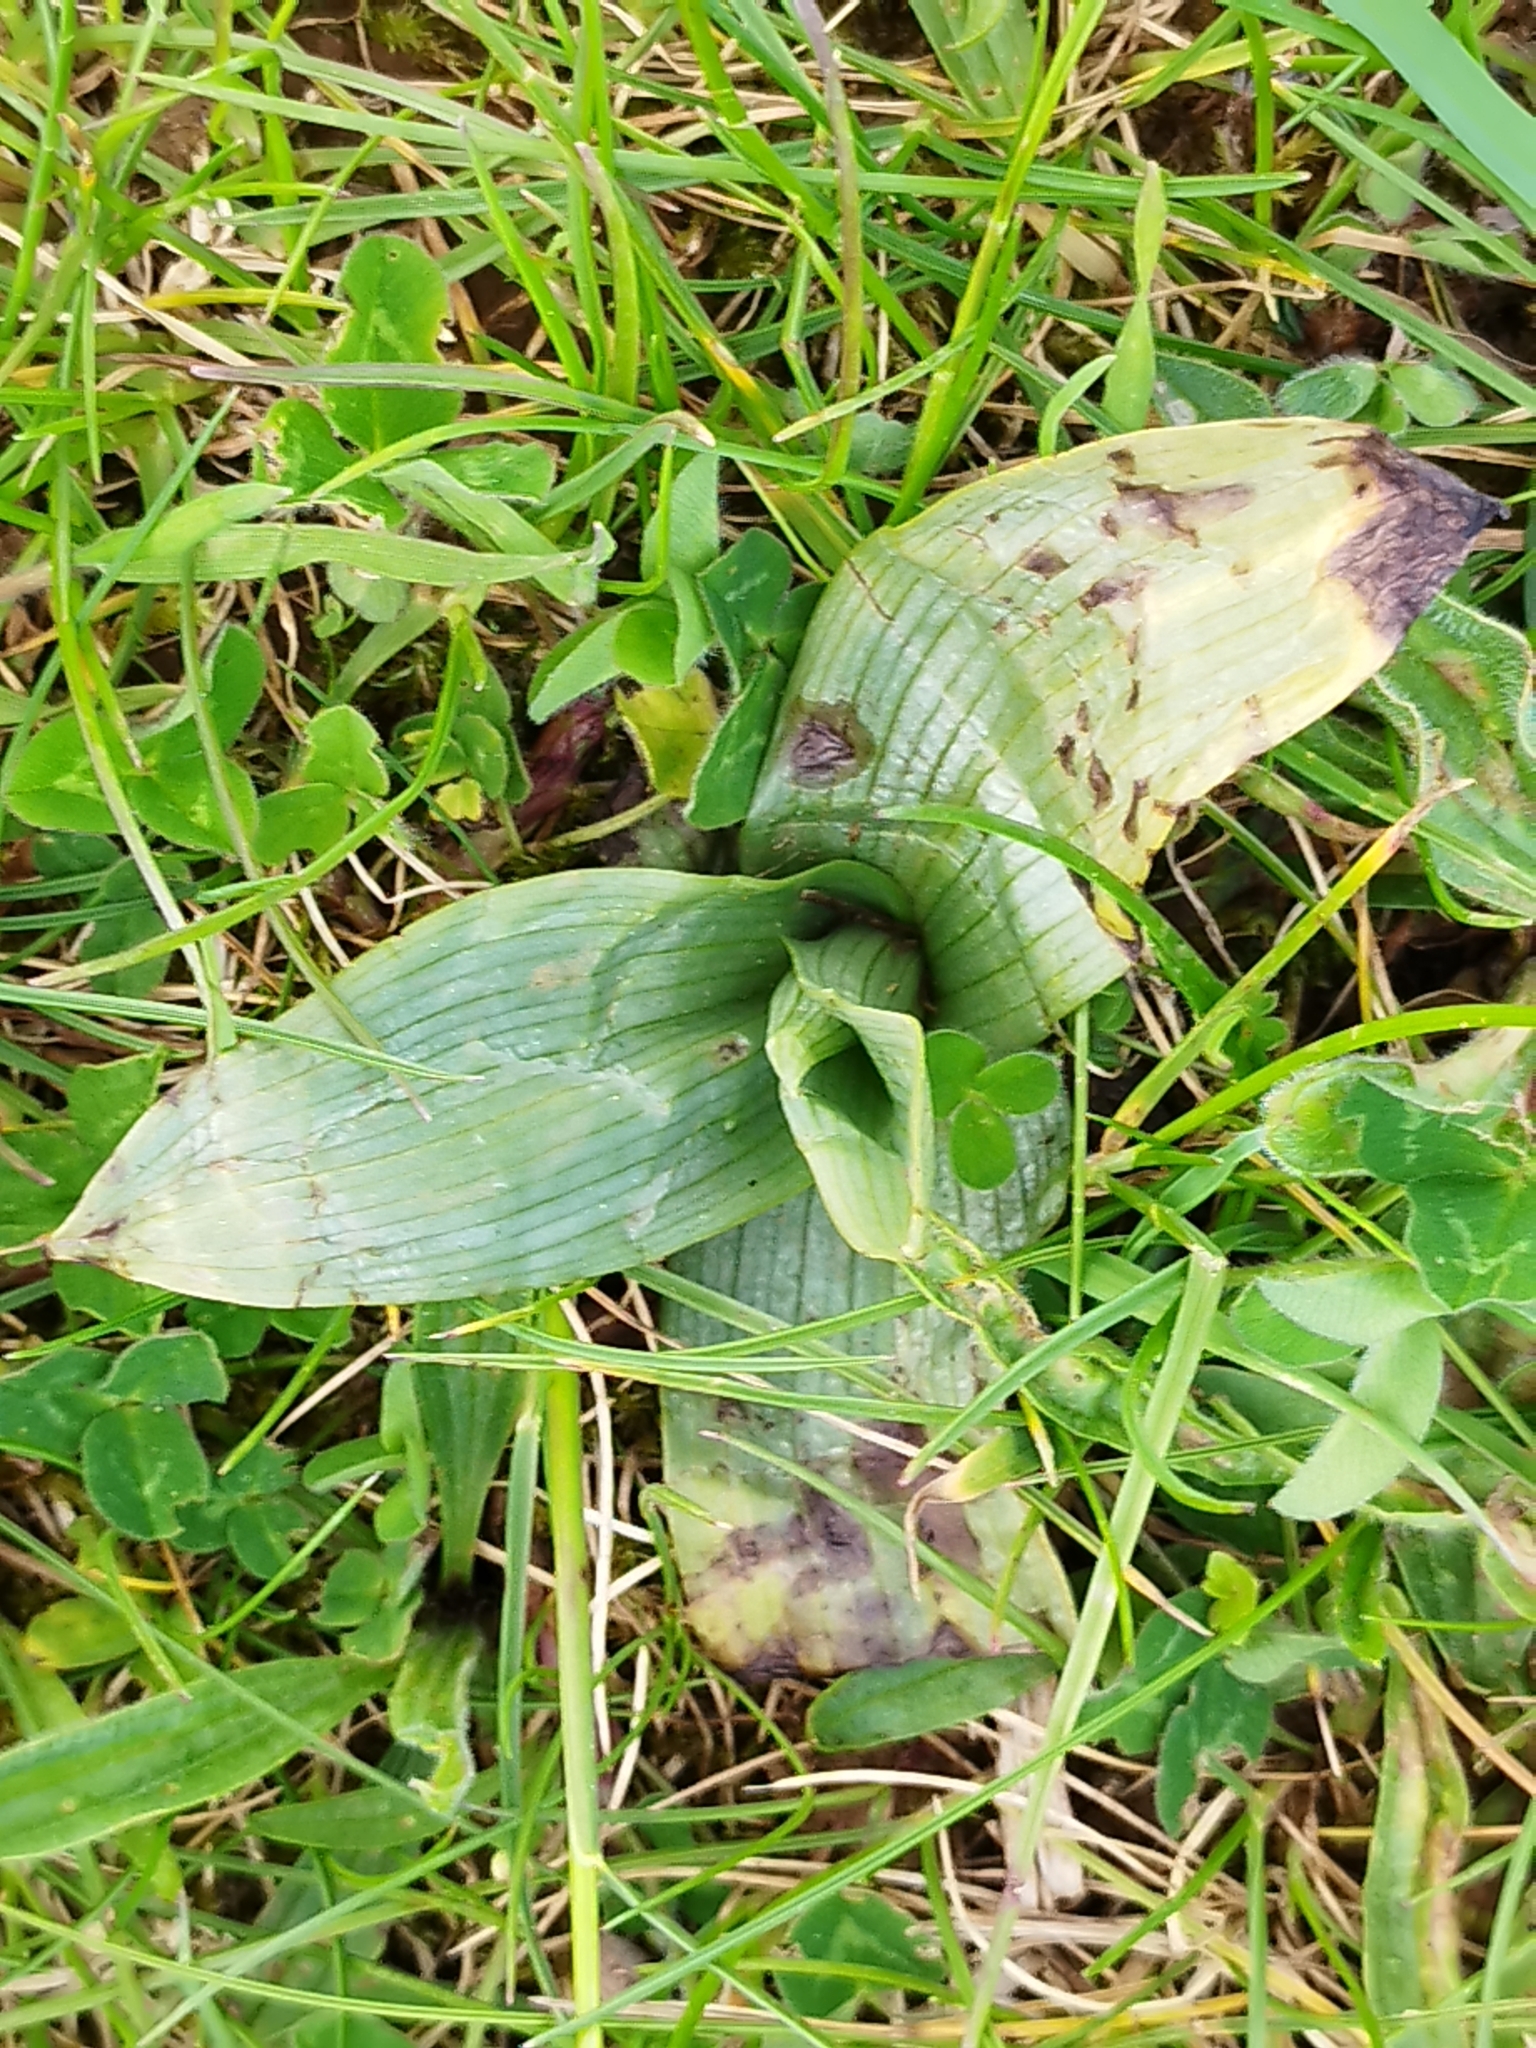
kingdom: Plantae
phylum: Tracheophyta
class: Liliopsida
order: Asparagales
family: Orchidaceae
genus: Ophrys
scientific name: Ophrys apifera
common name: Bee orchid
